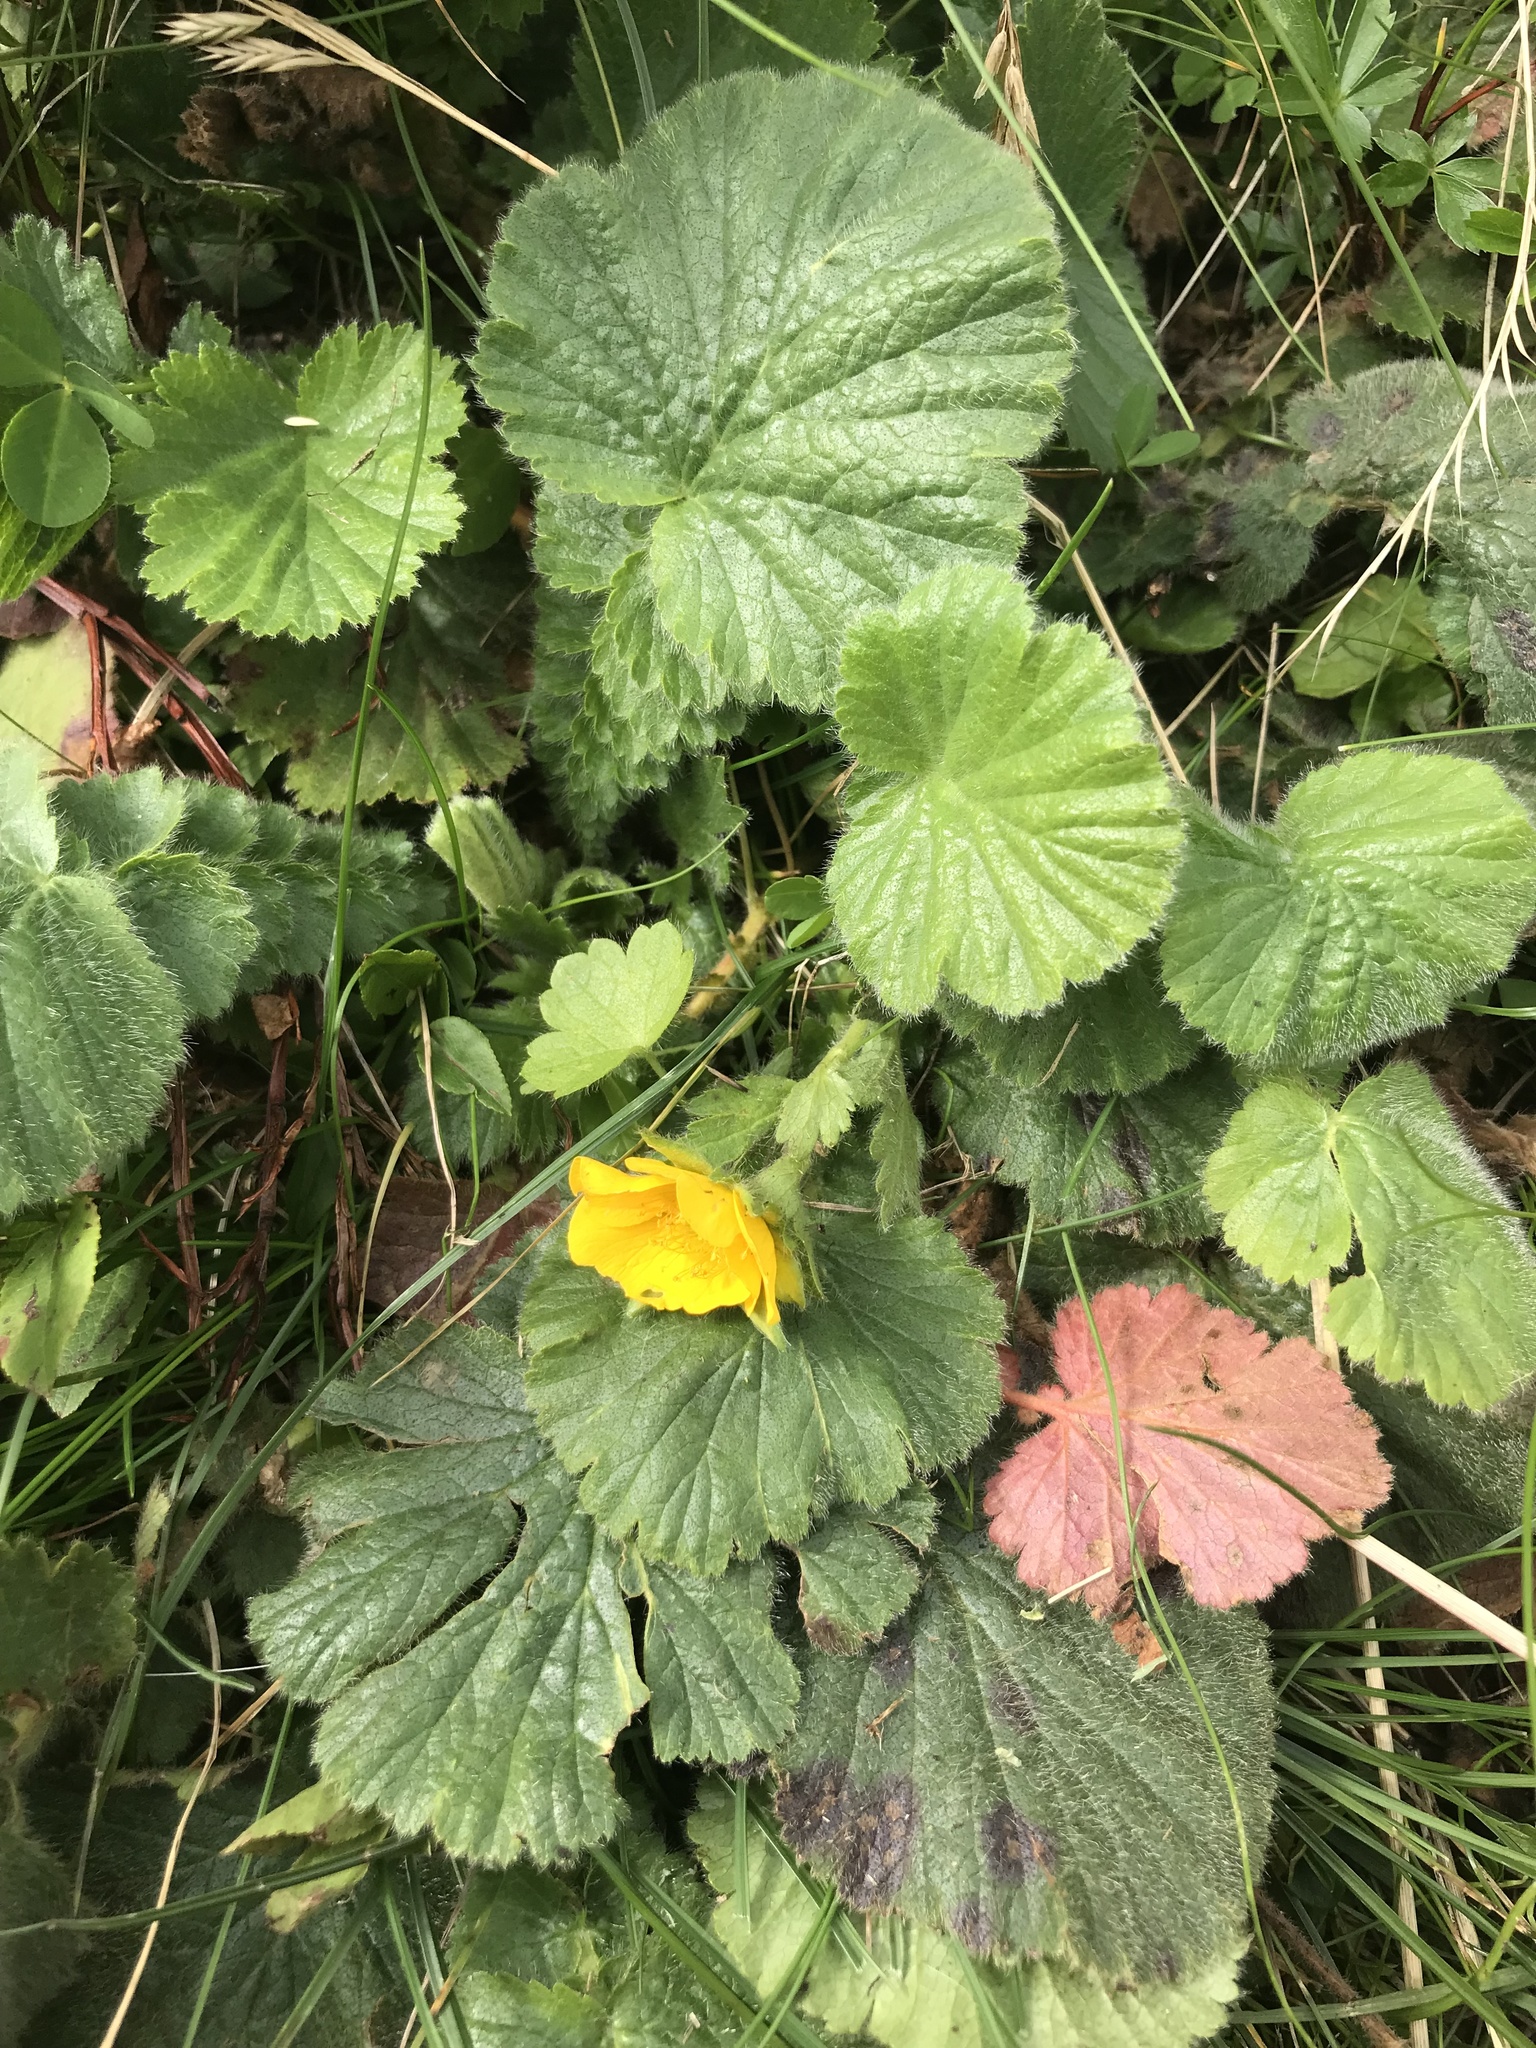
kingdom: Plantae
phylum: Tracheophyta
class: Magnoliopsida
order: Rosales
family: Rosaceae
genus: Geum
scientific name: Geum montanum
